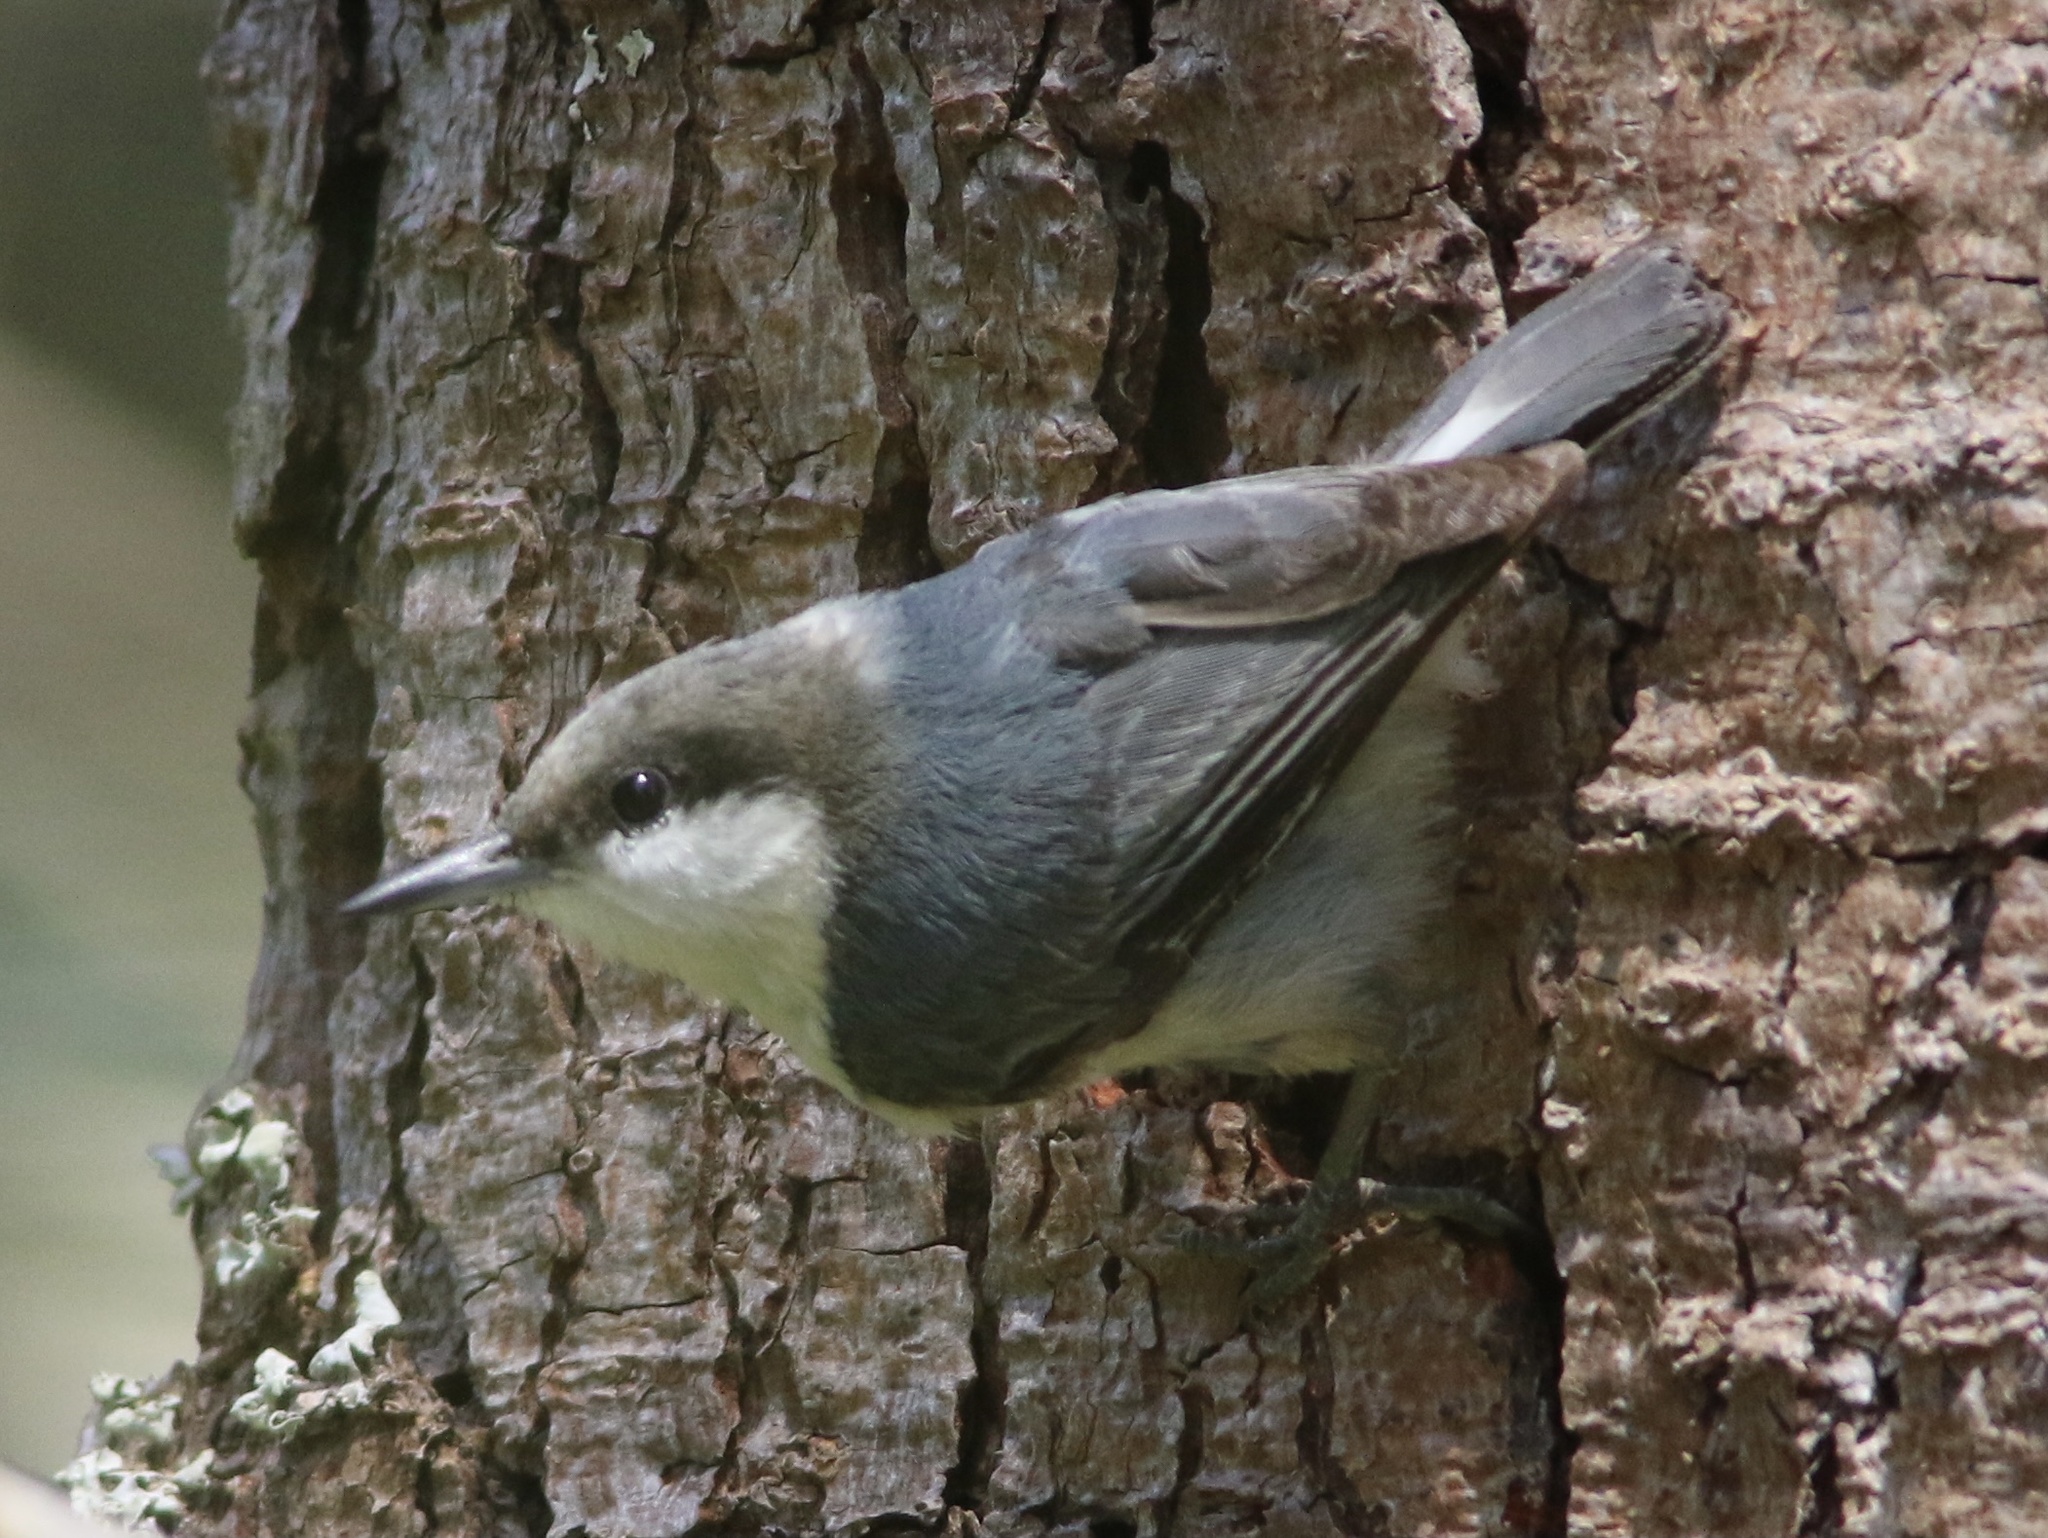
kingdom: Animalia
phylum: Chordata
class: Aves
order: Passeriformes
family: Sittidae
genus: Sitta
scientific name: Sitta pygmaea
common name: Pygmy nuthatch
